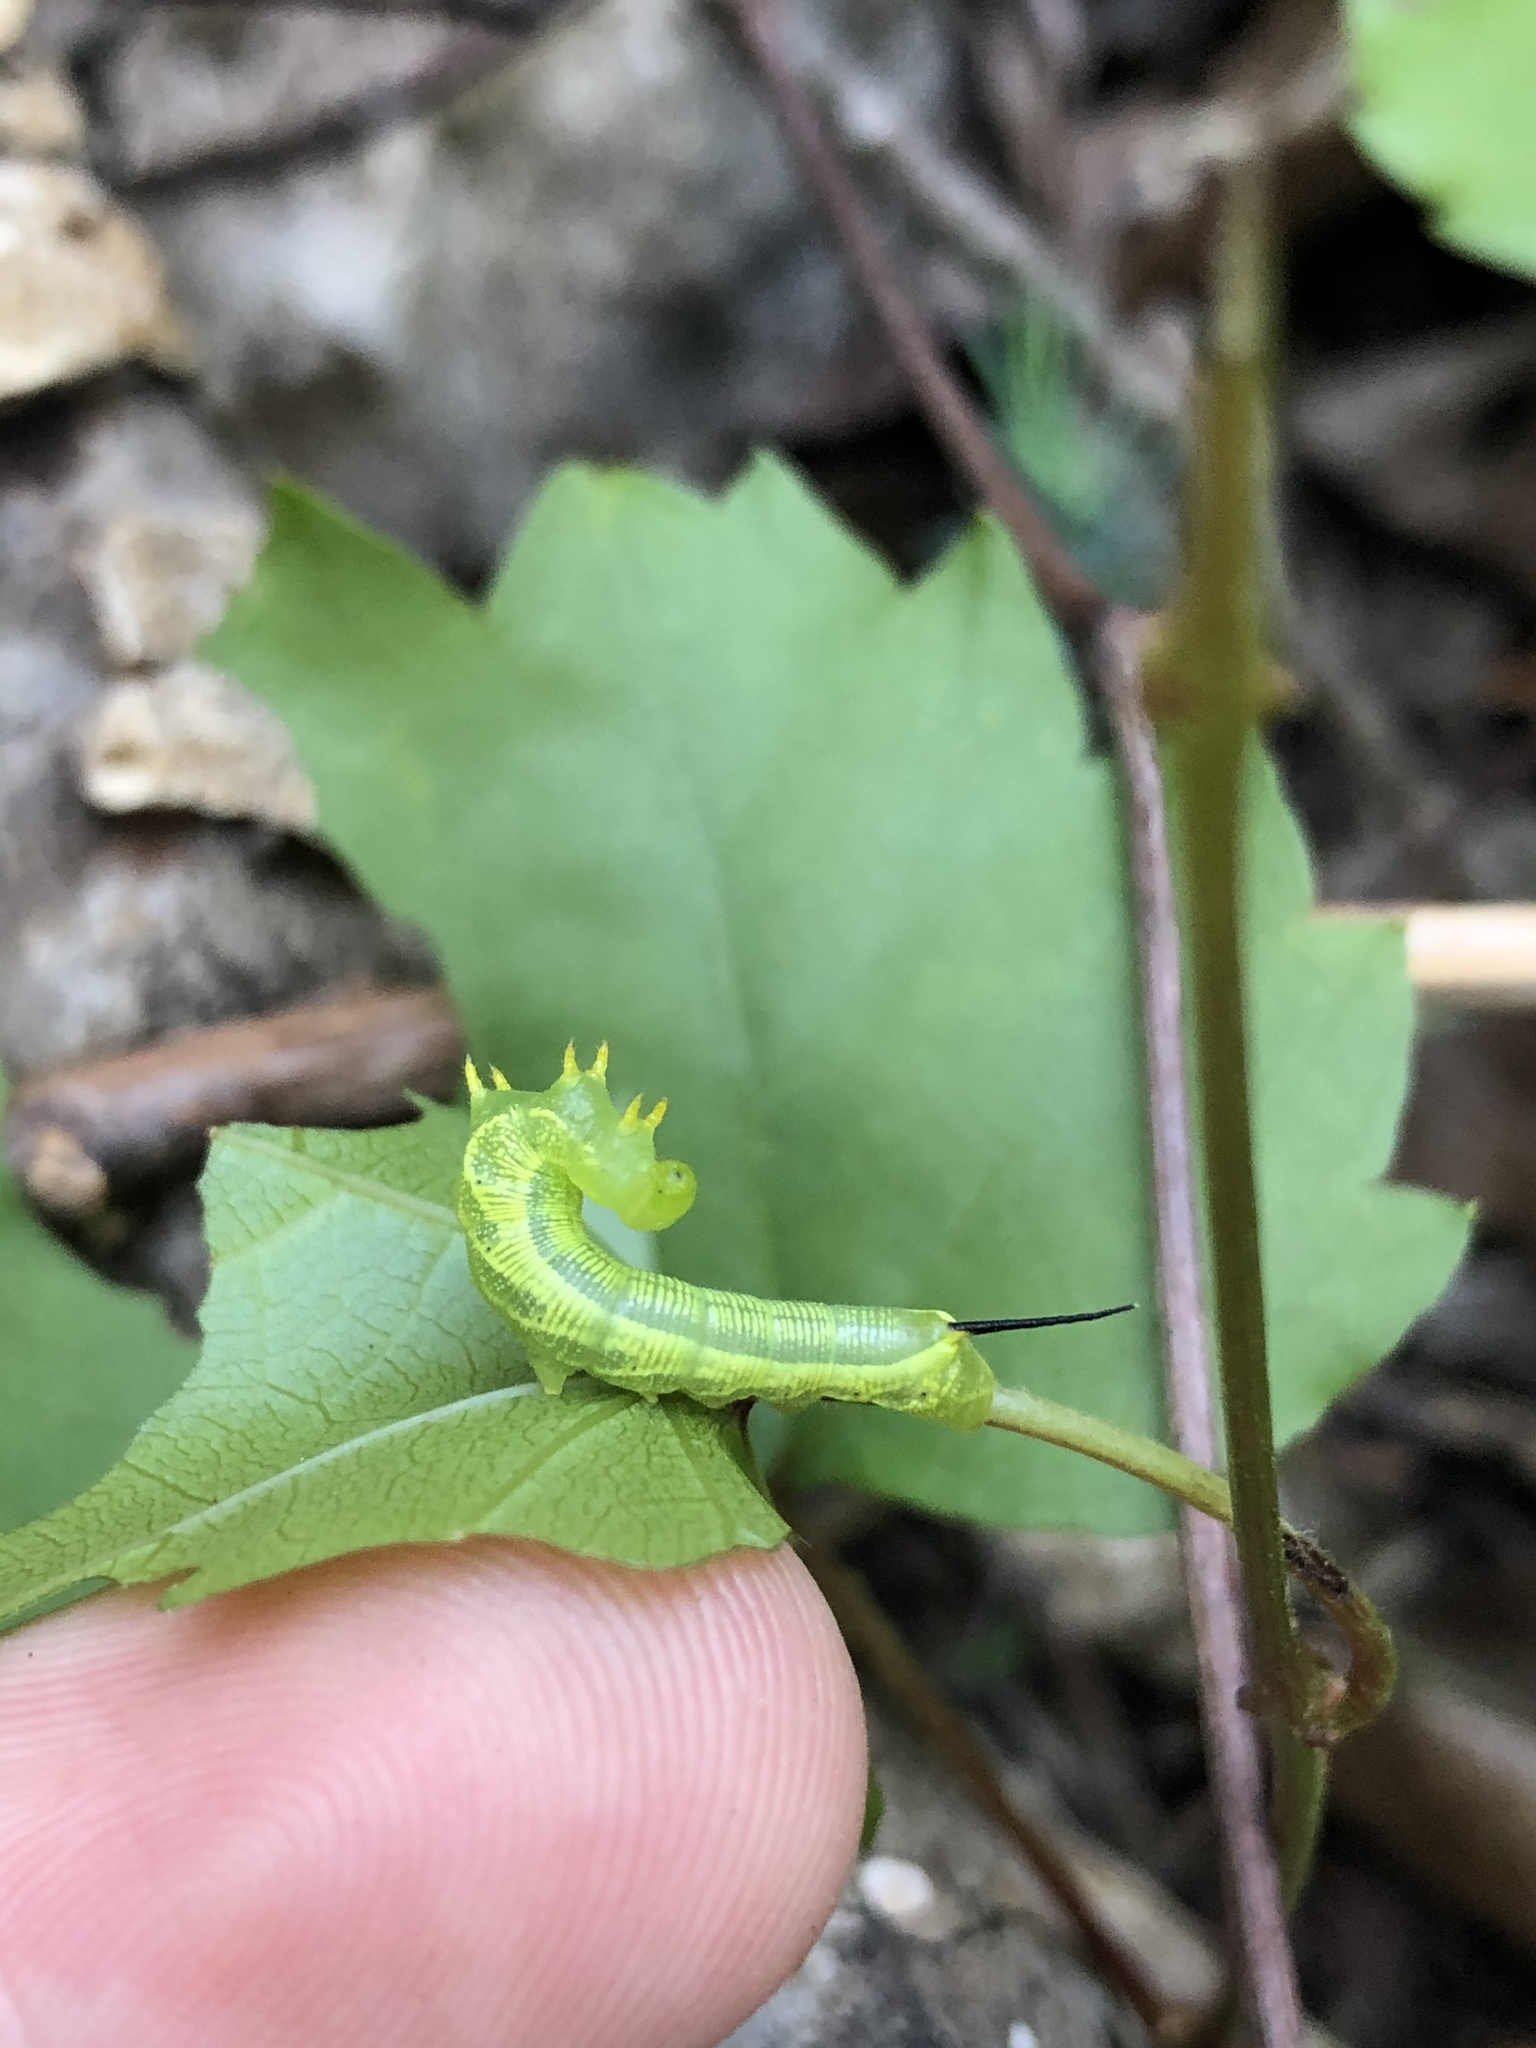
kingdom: Animalia
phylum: Arthropoda
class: Insecta
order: Lepidoptera
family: Sphingidae
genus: Deidamia
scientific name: Deidamia inscriptum
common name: Lettered sphinx
